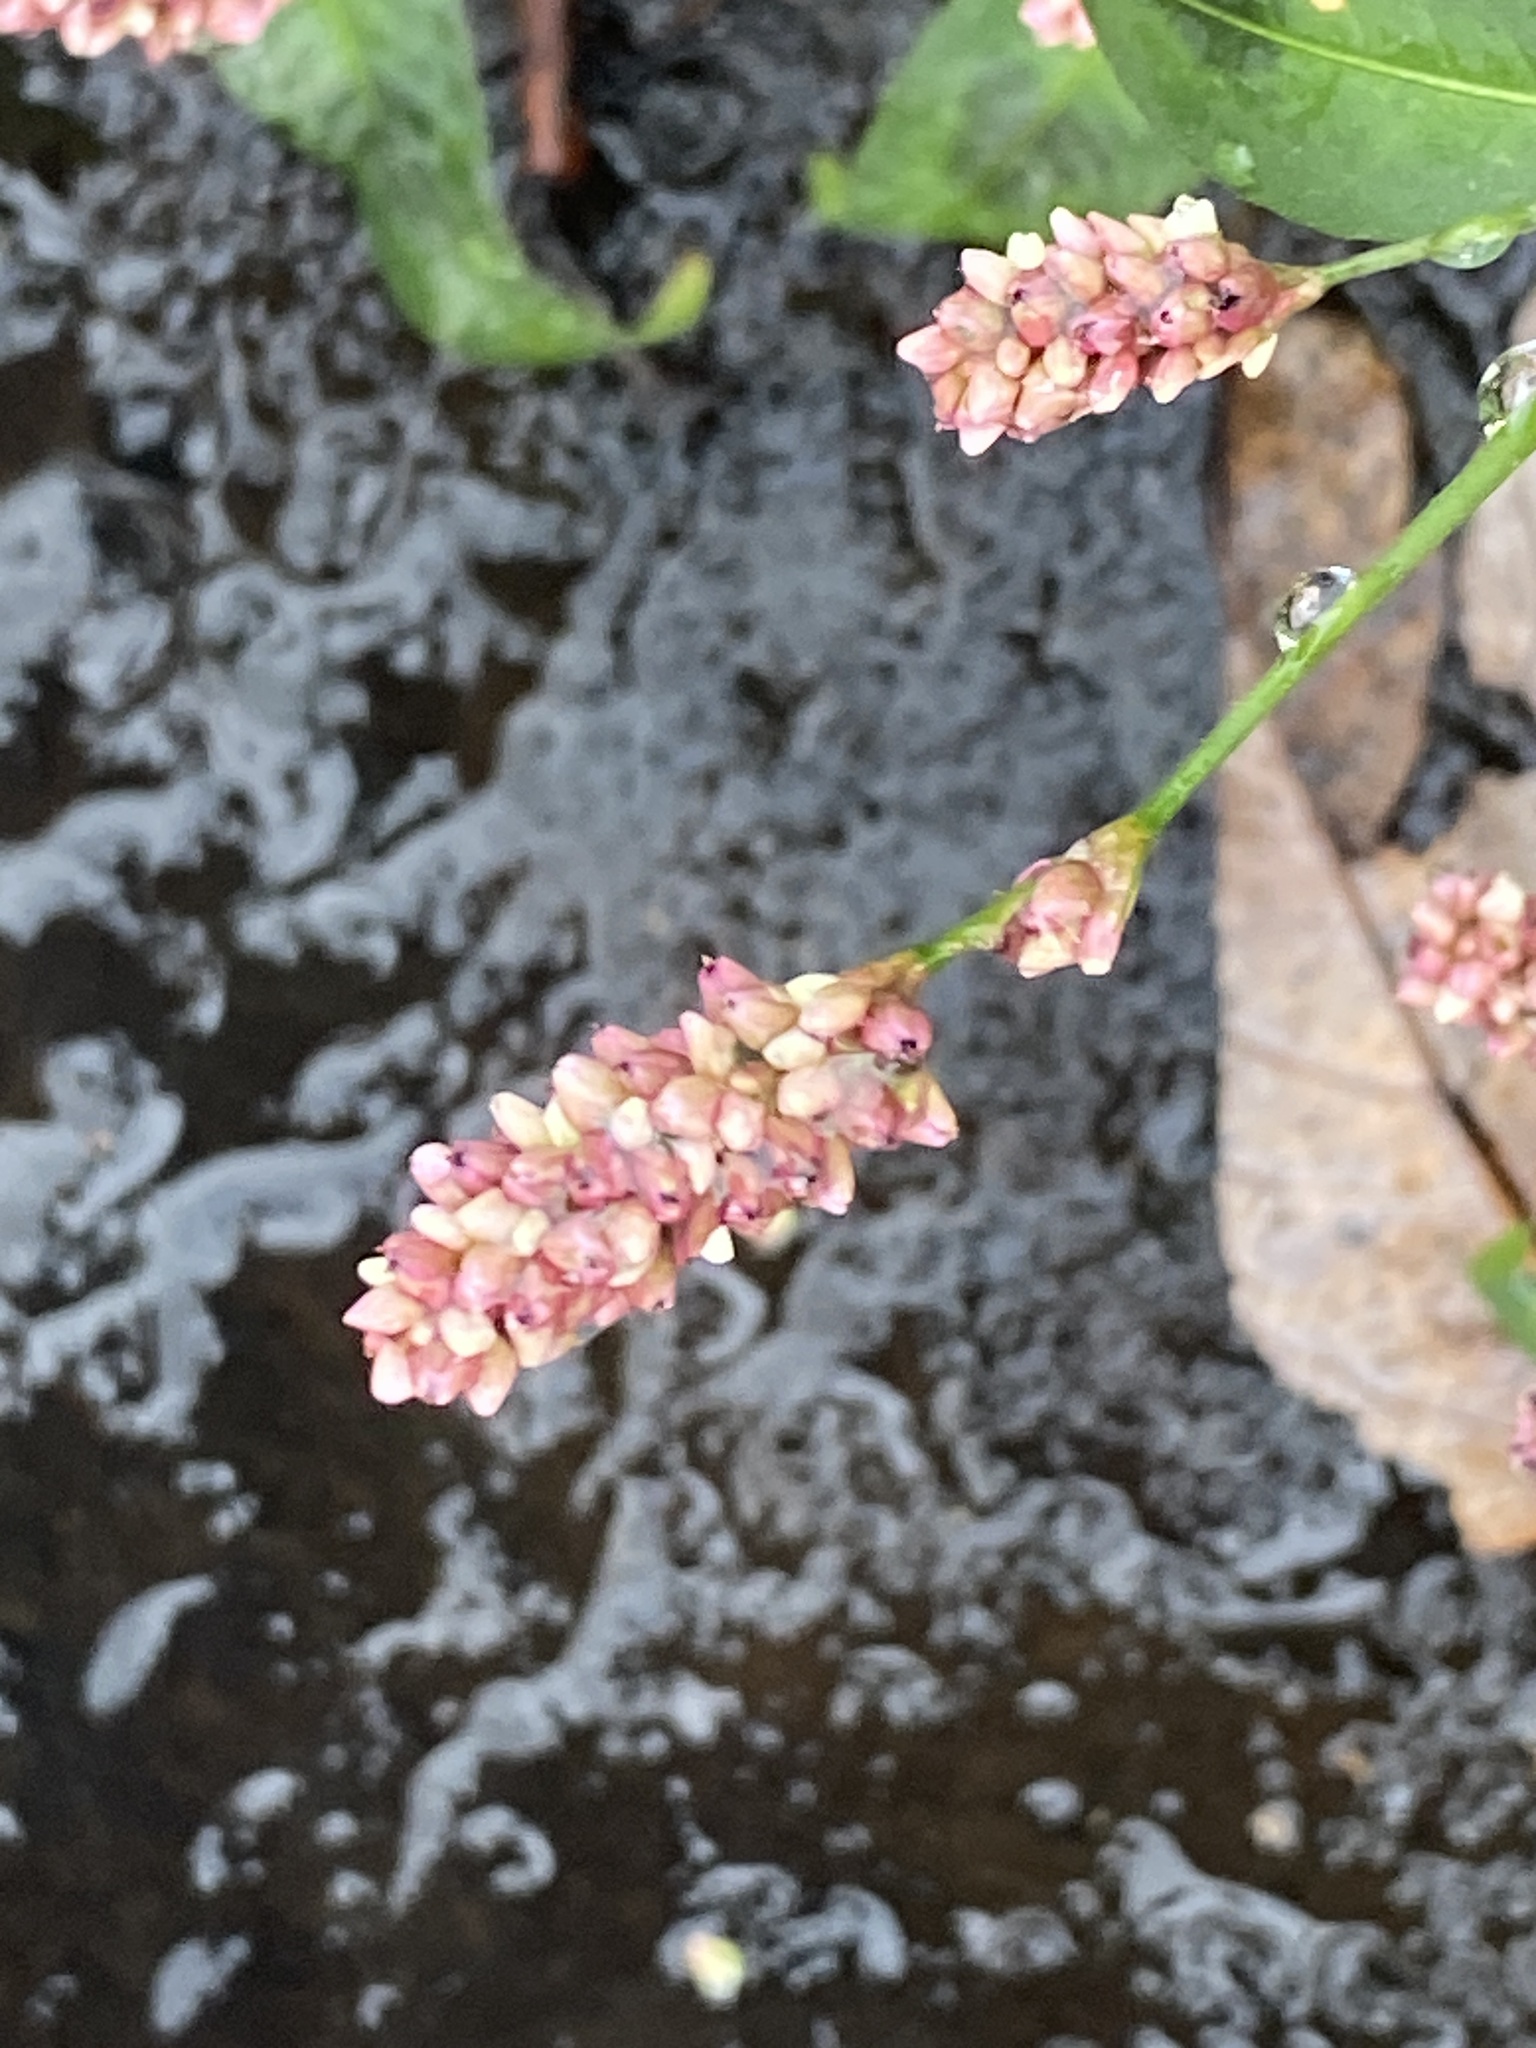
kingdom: Plantae
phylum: Tracheophyta
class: Magnoliopsida
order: Caryophyllales
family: Polygonaceae
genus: Persicaria
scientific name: Persicaria maculosa
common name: Redshank
